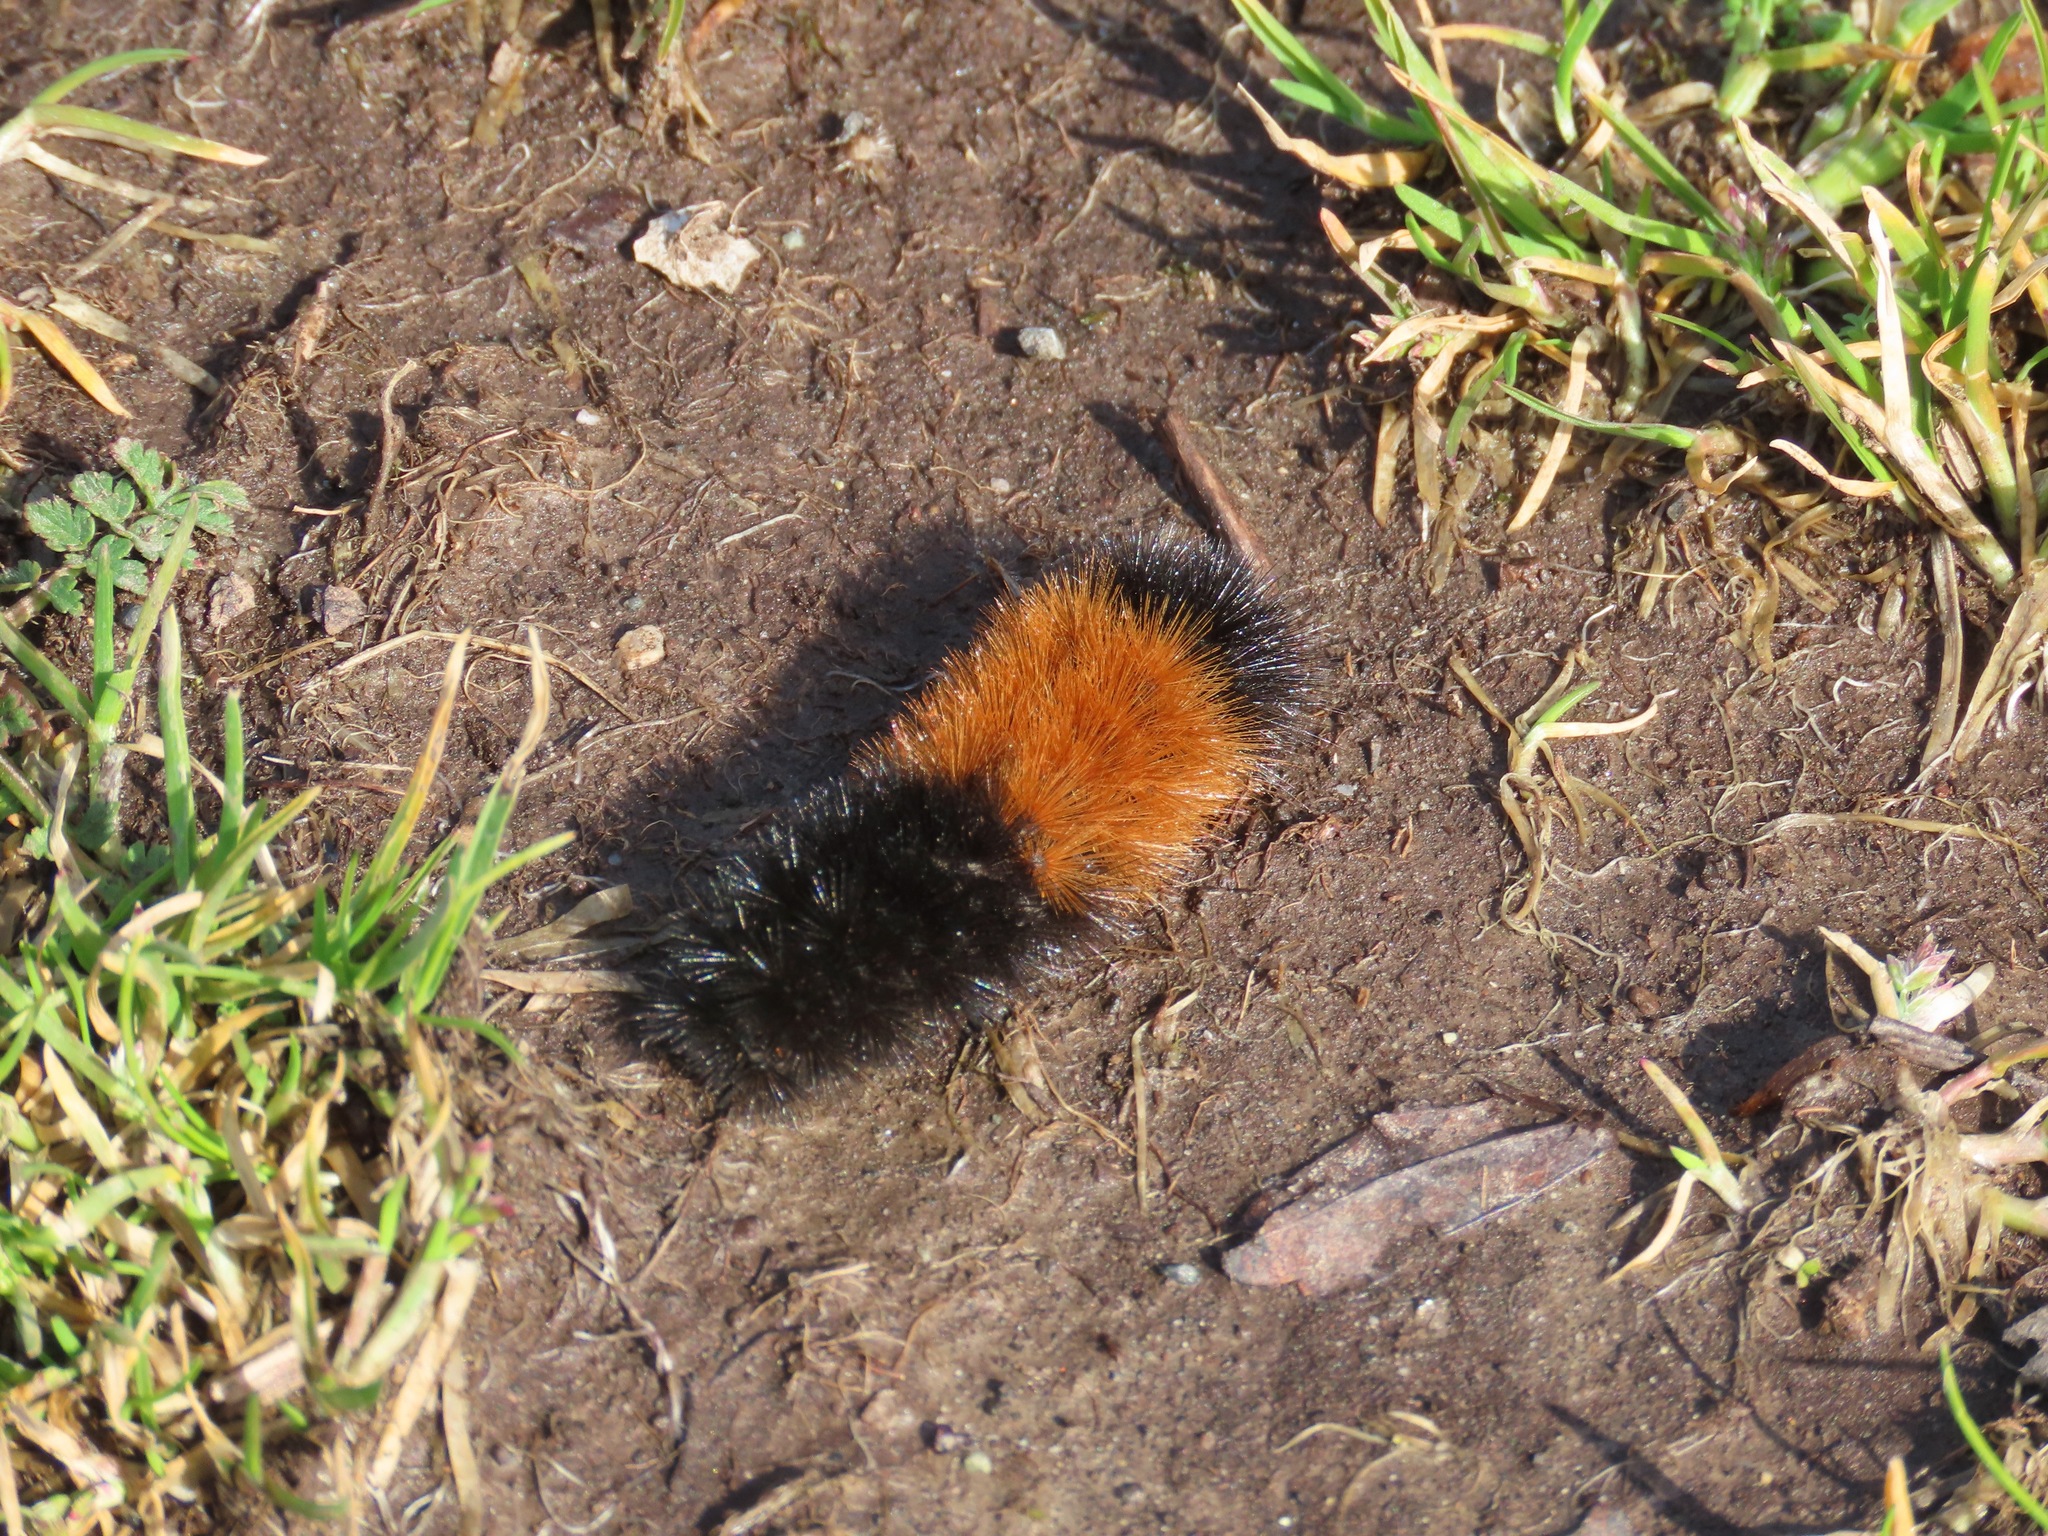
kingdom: Animalia
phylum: Arthropoda
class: Insecta
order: Lepidoptera
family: Erebidae
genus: Pyrrharctia
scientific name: Pyrrharctia isabella
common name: Isabella tiger moth
